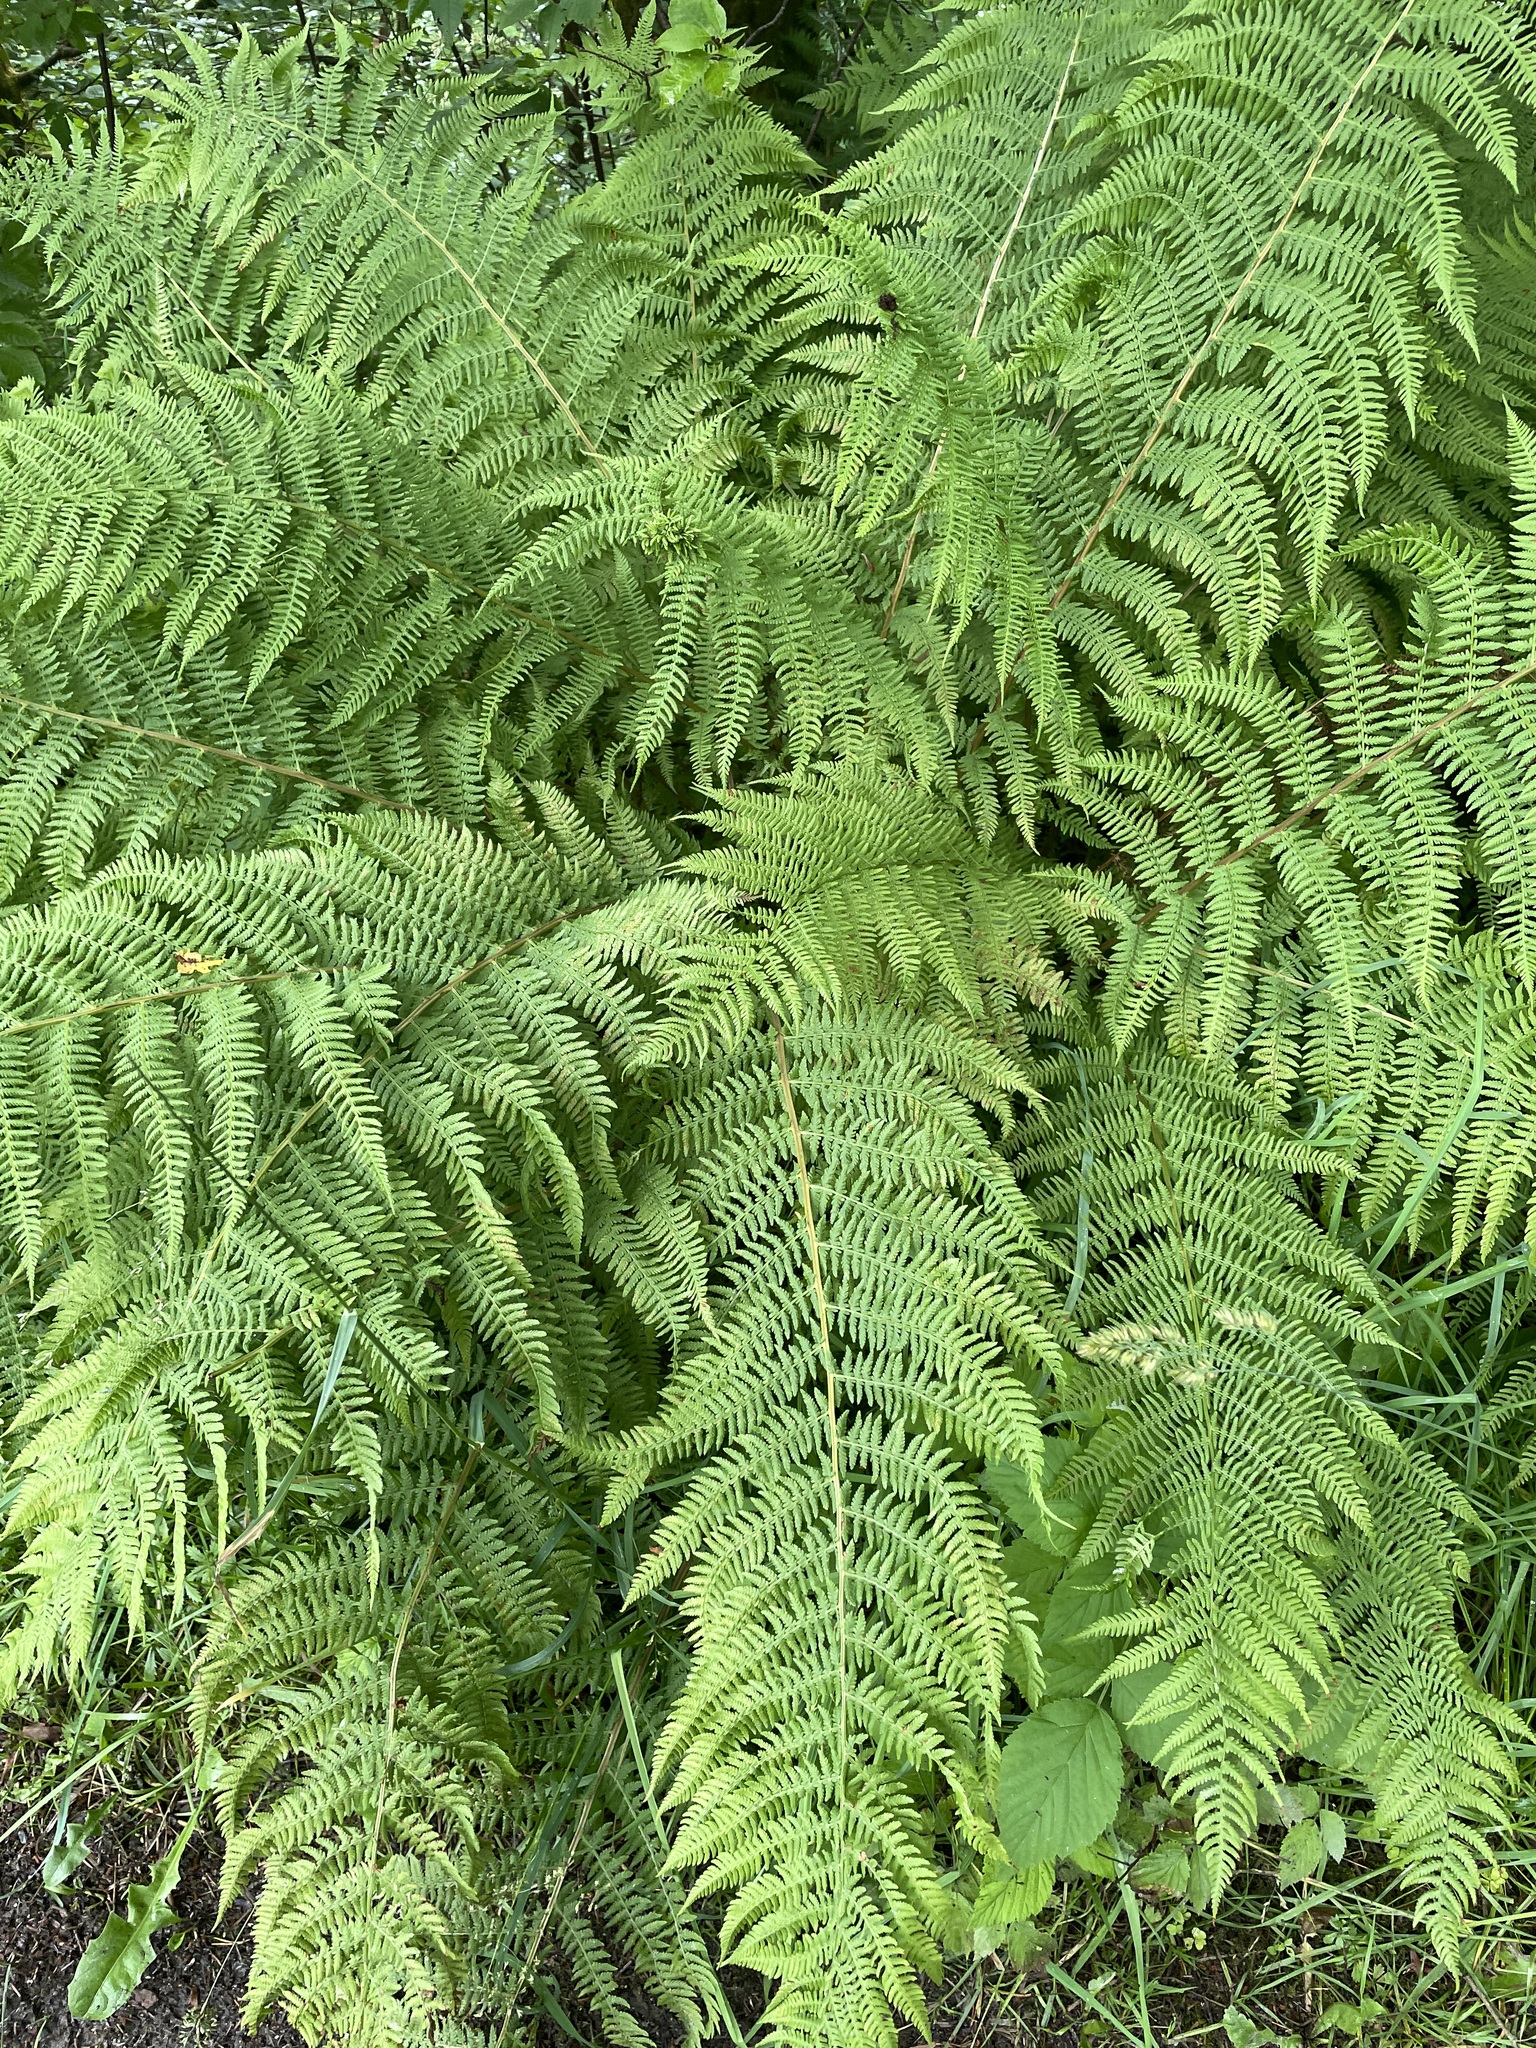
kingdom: Plantae
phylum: Tracheophyta
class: Polypodiopsida
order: Polypodiales
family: Athyriaceae
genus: Athyrium
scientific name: Athyrium filix-femina
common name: Lady fern
